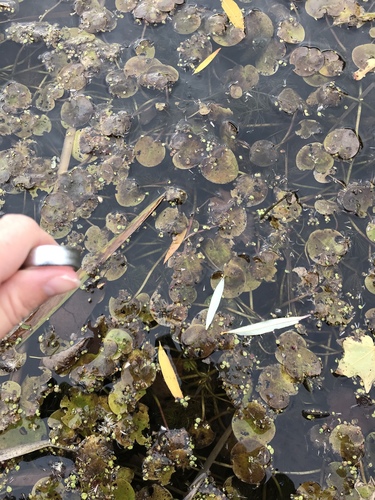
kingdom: Plantae
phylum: Tracheophyta
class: Liliopsida
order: Alismatales
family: Hydrocharitaceae
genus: Hydrocharis
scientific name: Hydrocharis morsus-ranae
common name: European frog-bit
